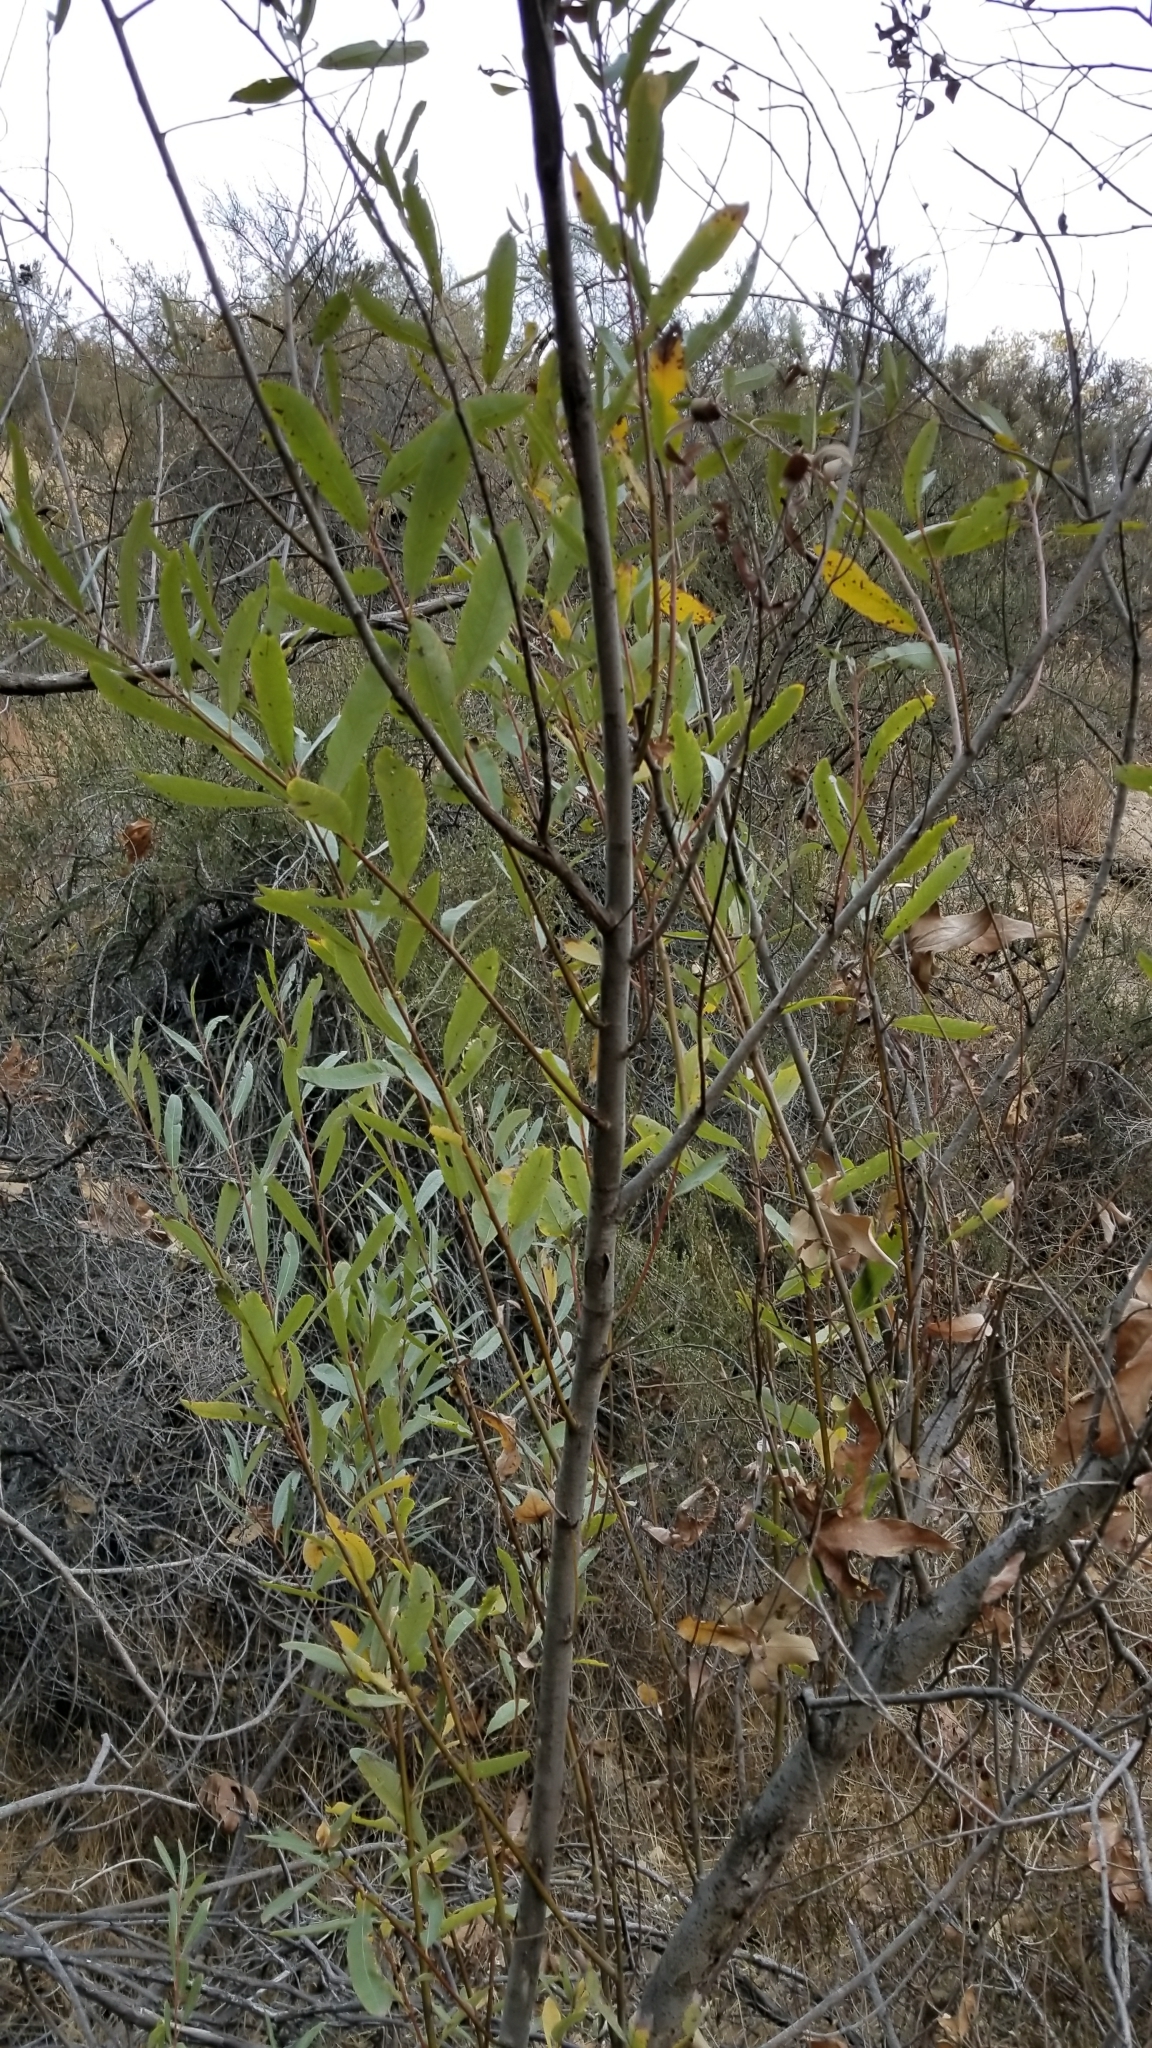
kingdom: Plantae
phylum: Tracheophyta
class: Magnoliopsida
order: Malpighiales
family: Salicaceae
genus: Salix
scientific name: Salix lasiolepis
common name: Arroyo willow
